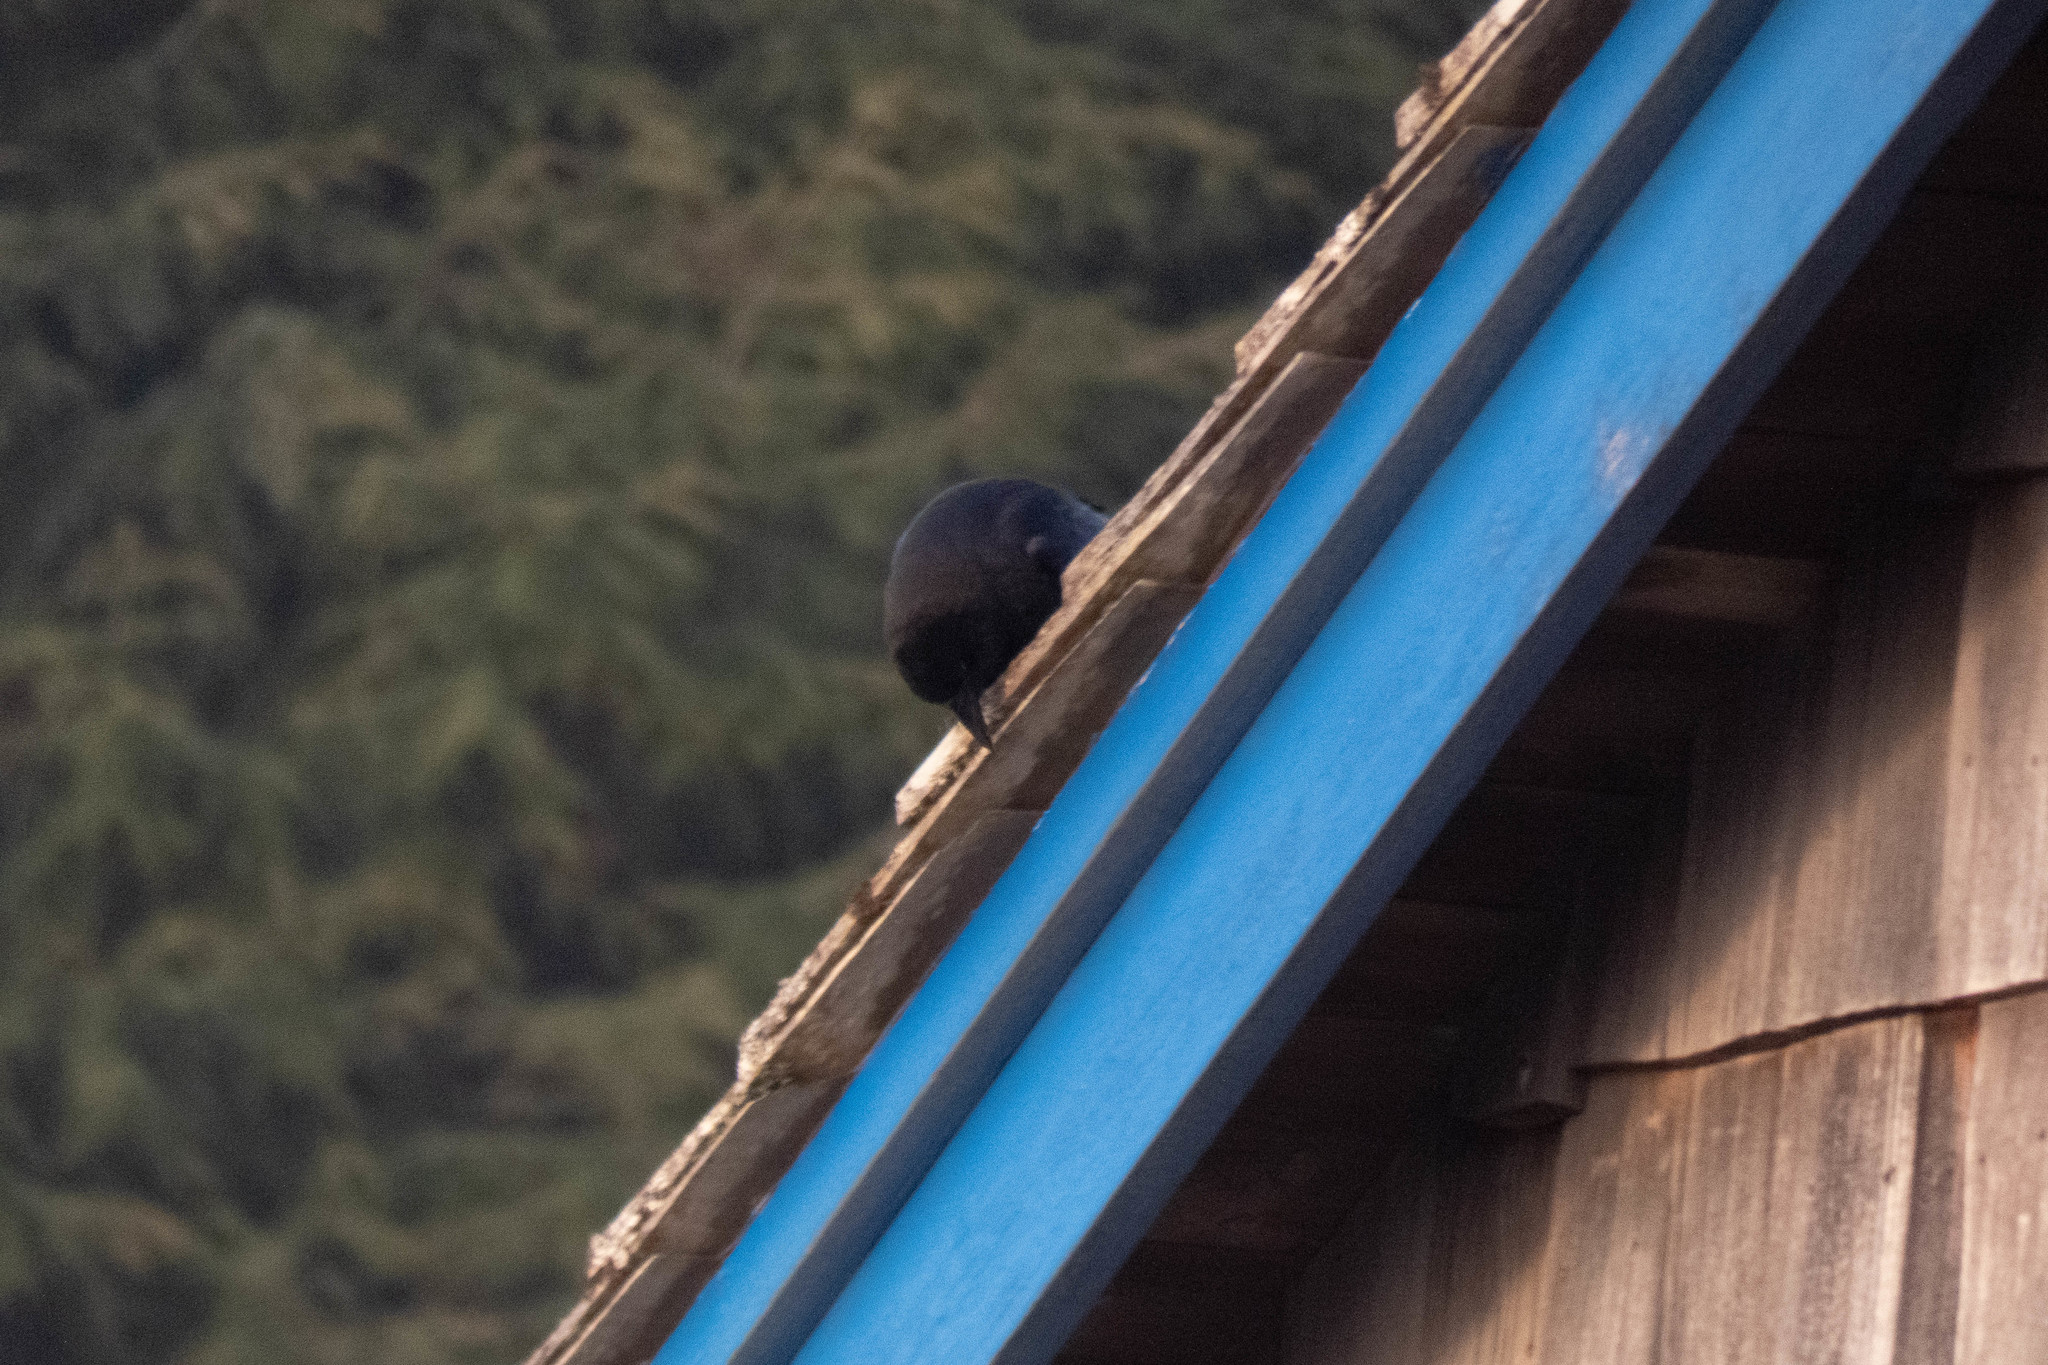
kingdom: Animalia
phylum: Chordata
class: Aves
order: Passeriformes
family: Corvidae
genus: Corvus
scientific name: Corvus brachyrhynchos
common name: American crow
